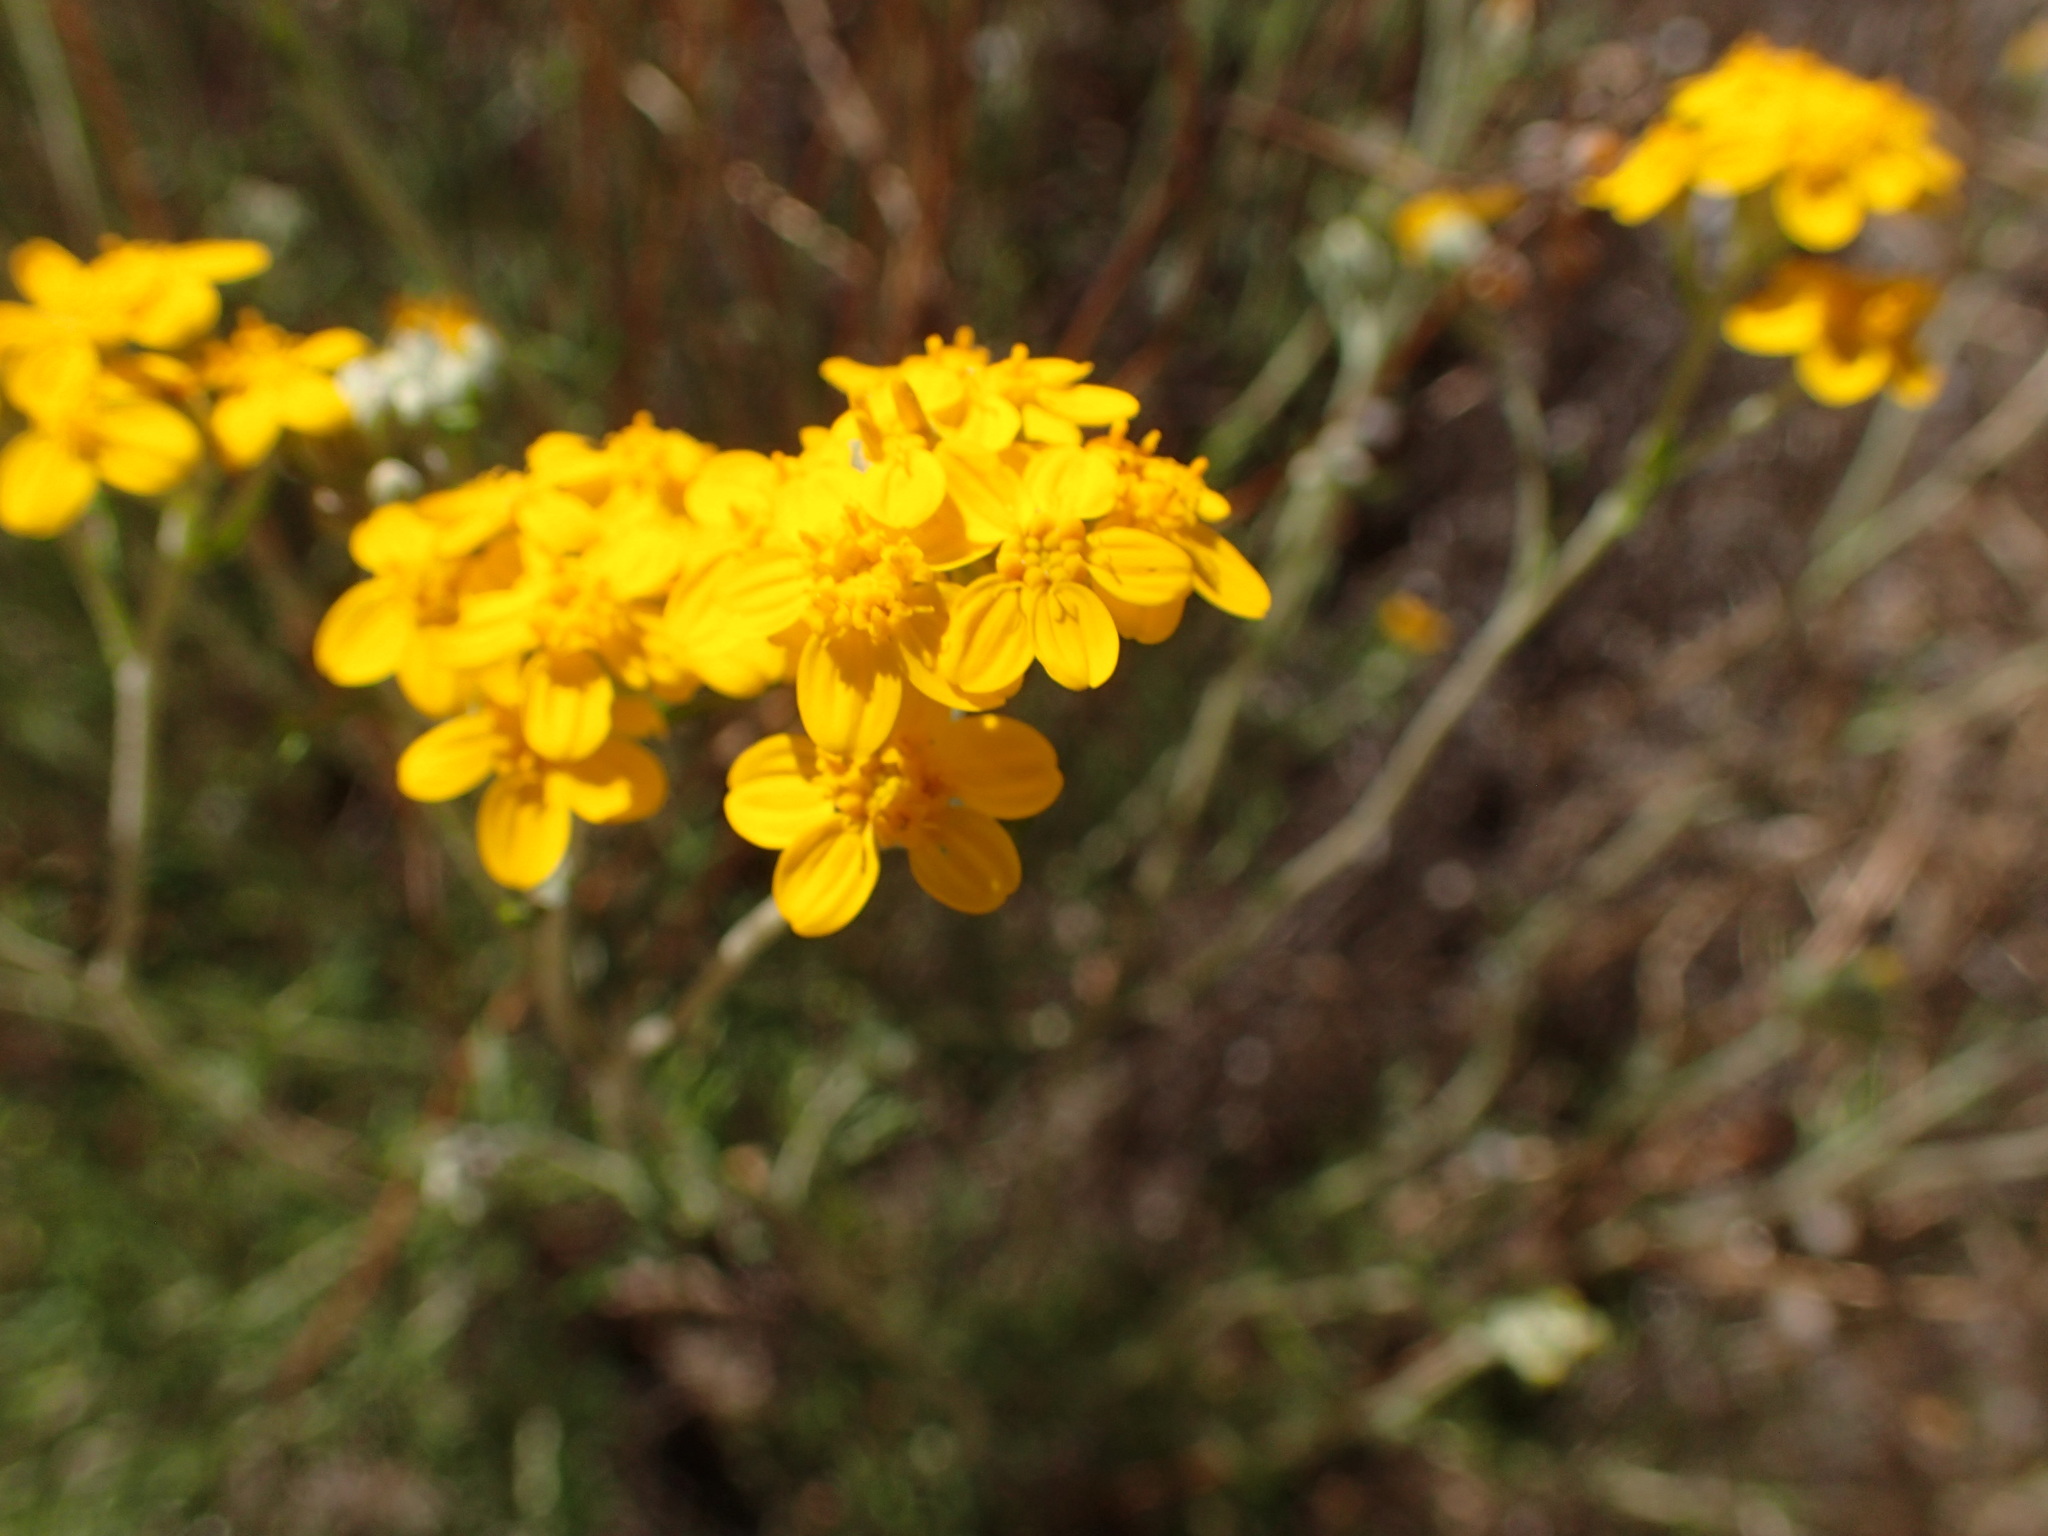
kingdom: Plantae
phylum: Tracheophyta
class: Magnoliopsida
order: Asterales
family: Asteraceae
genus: Eriophyllum
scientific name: Eriophyllum confertiflorum
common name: Golden-yarrow
